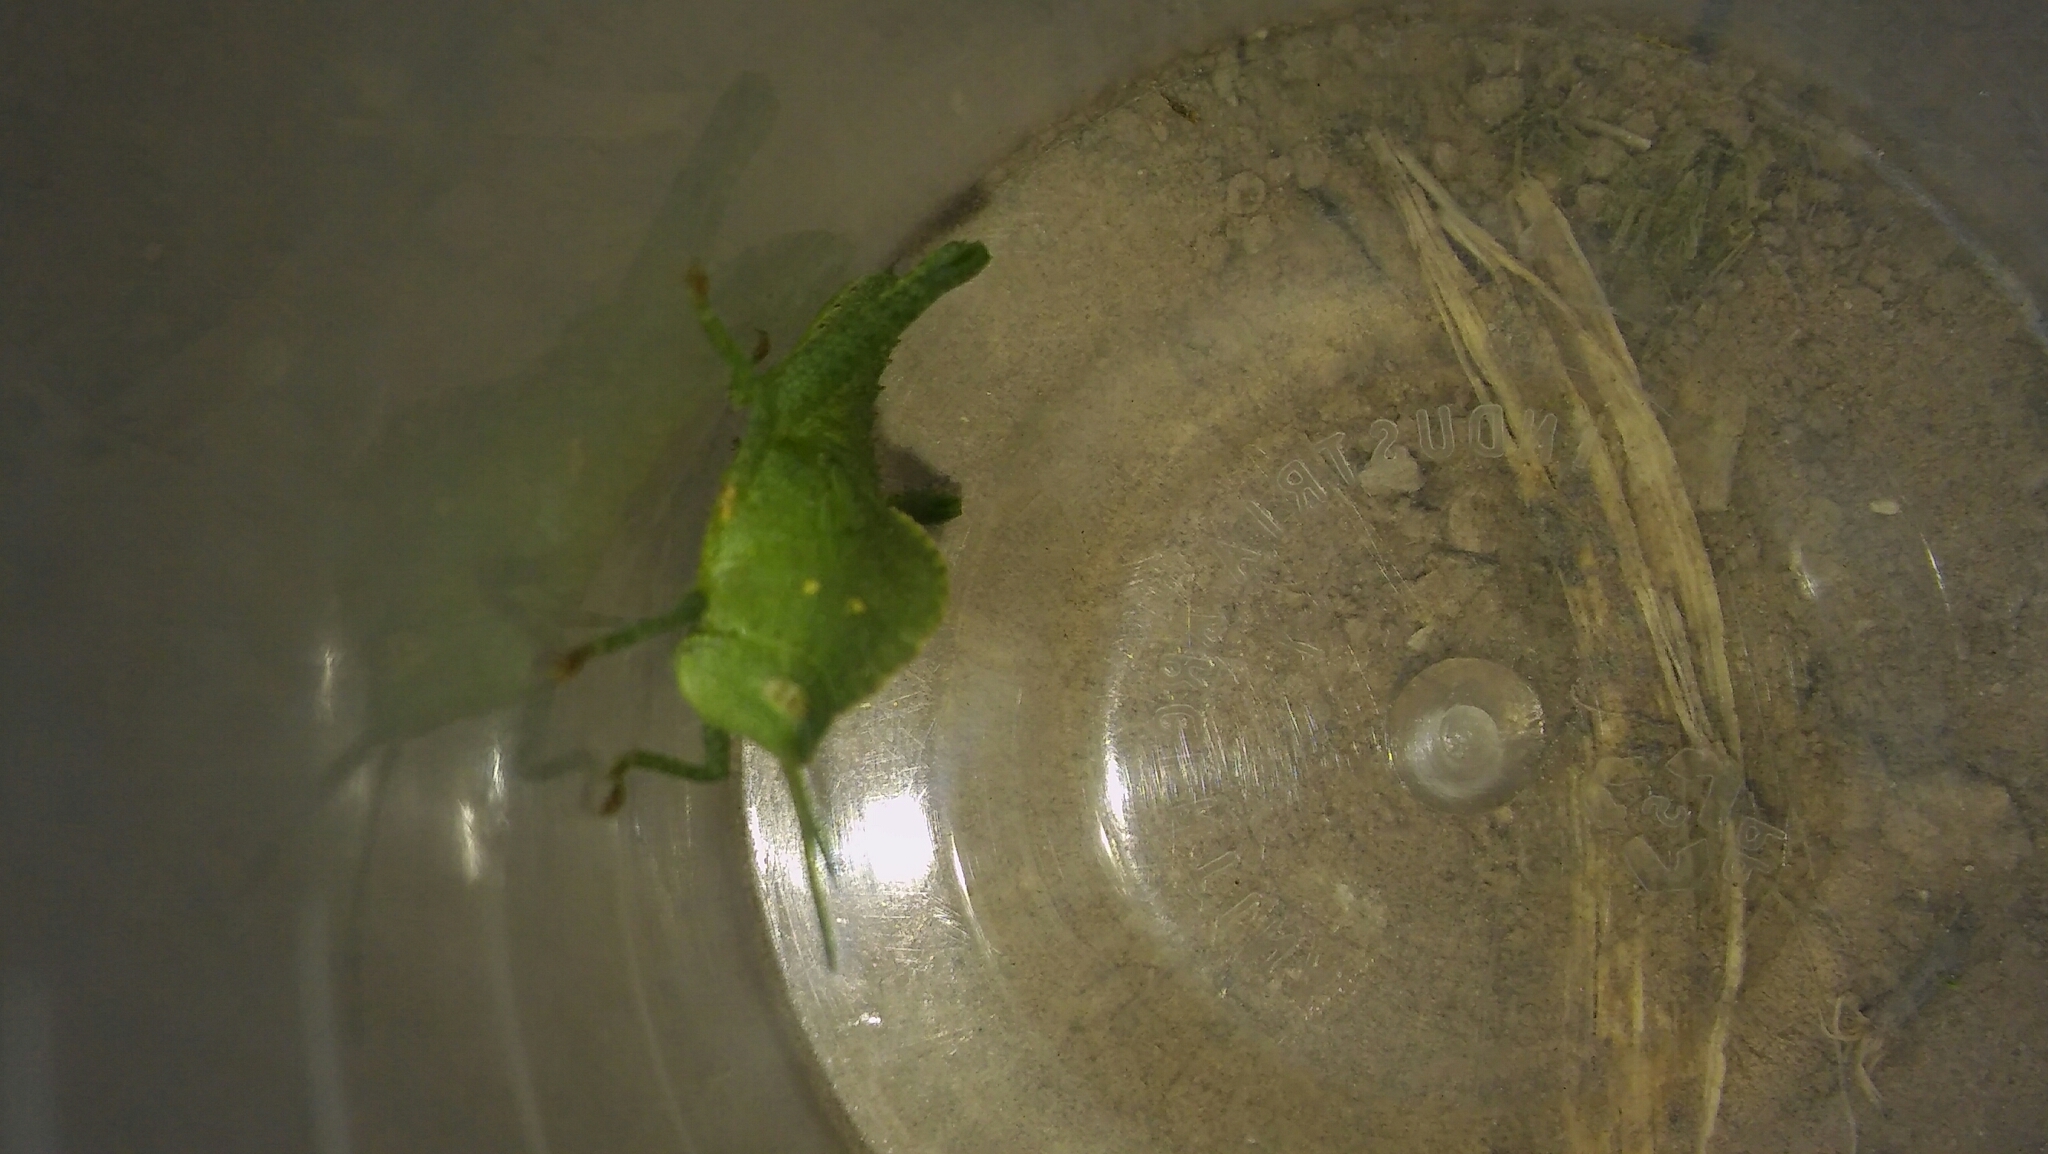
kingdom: Animalia
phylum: Arthropoda
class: Insecta
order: Orthoptera
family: Romaleidae
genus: Xyleus
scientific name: Xyleus discoideus
